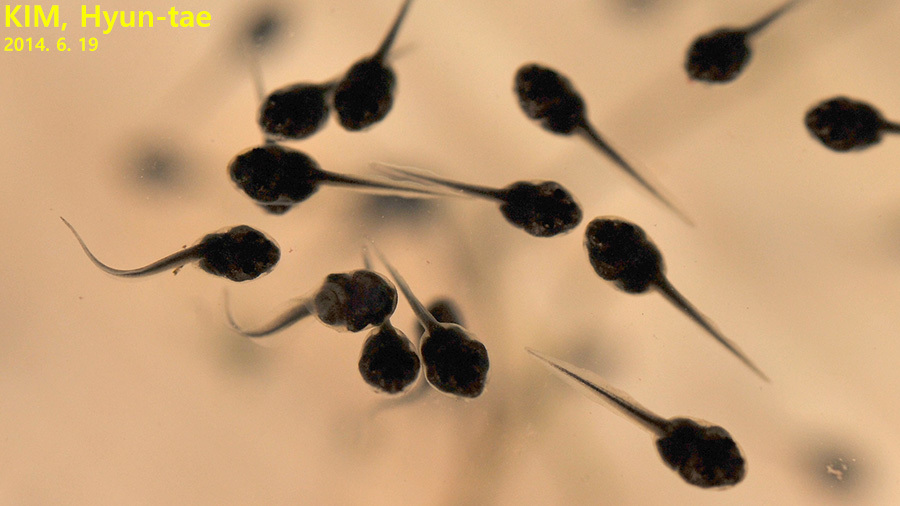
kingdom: Animalia
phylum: Chordata
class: Amphibia
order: Anura
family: Ranidae
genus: Lithobates
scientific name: Lithobates catesbeianus
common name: American bullfrog
